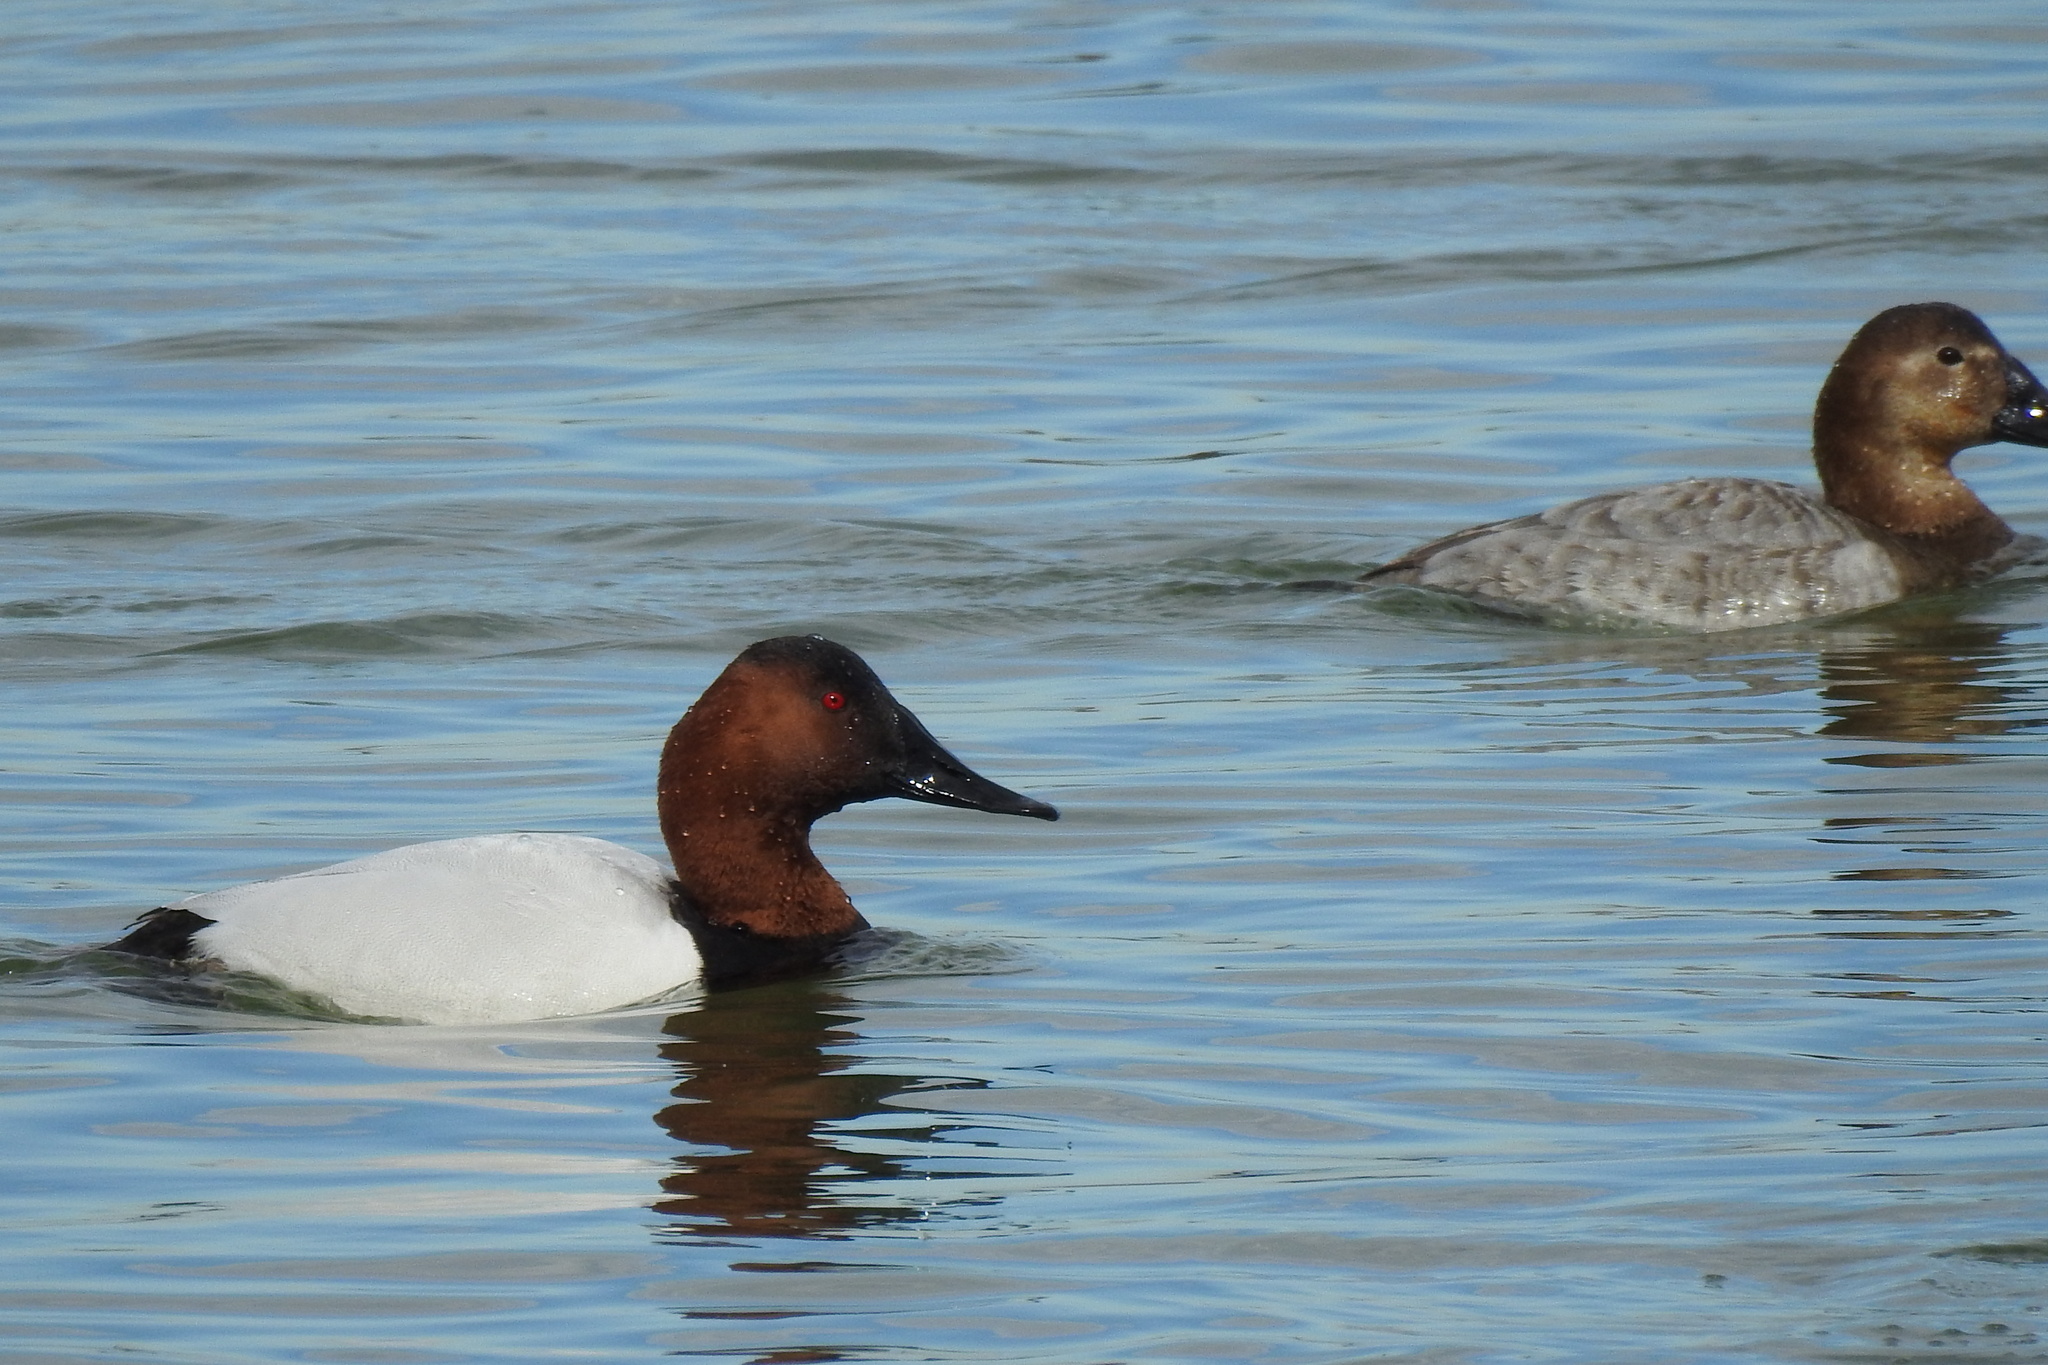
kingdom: Animalia
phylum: Chordata
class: Aves
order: Anseriformes
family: Anatidae
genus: Aythya
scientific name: Aythya valisineria
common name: Canvasback
